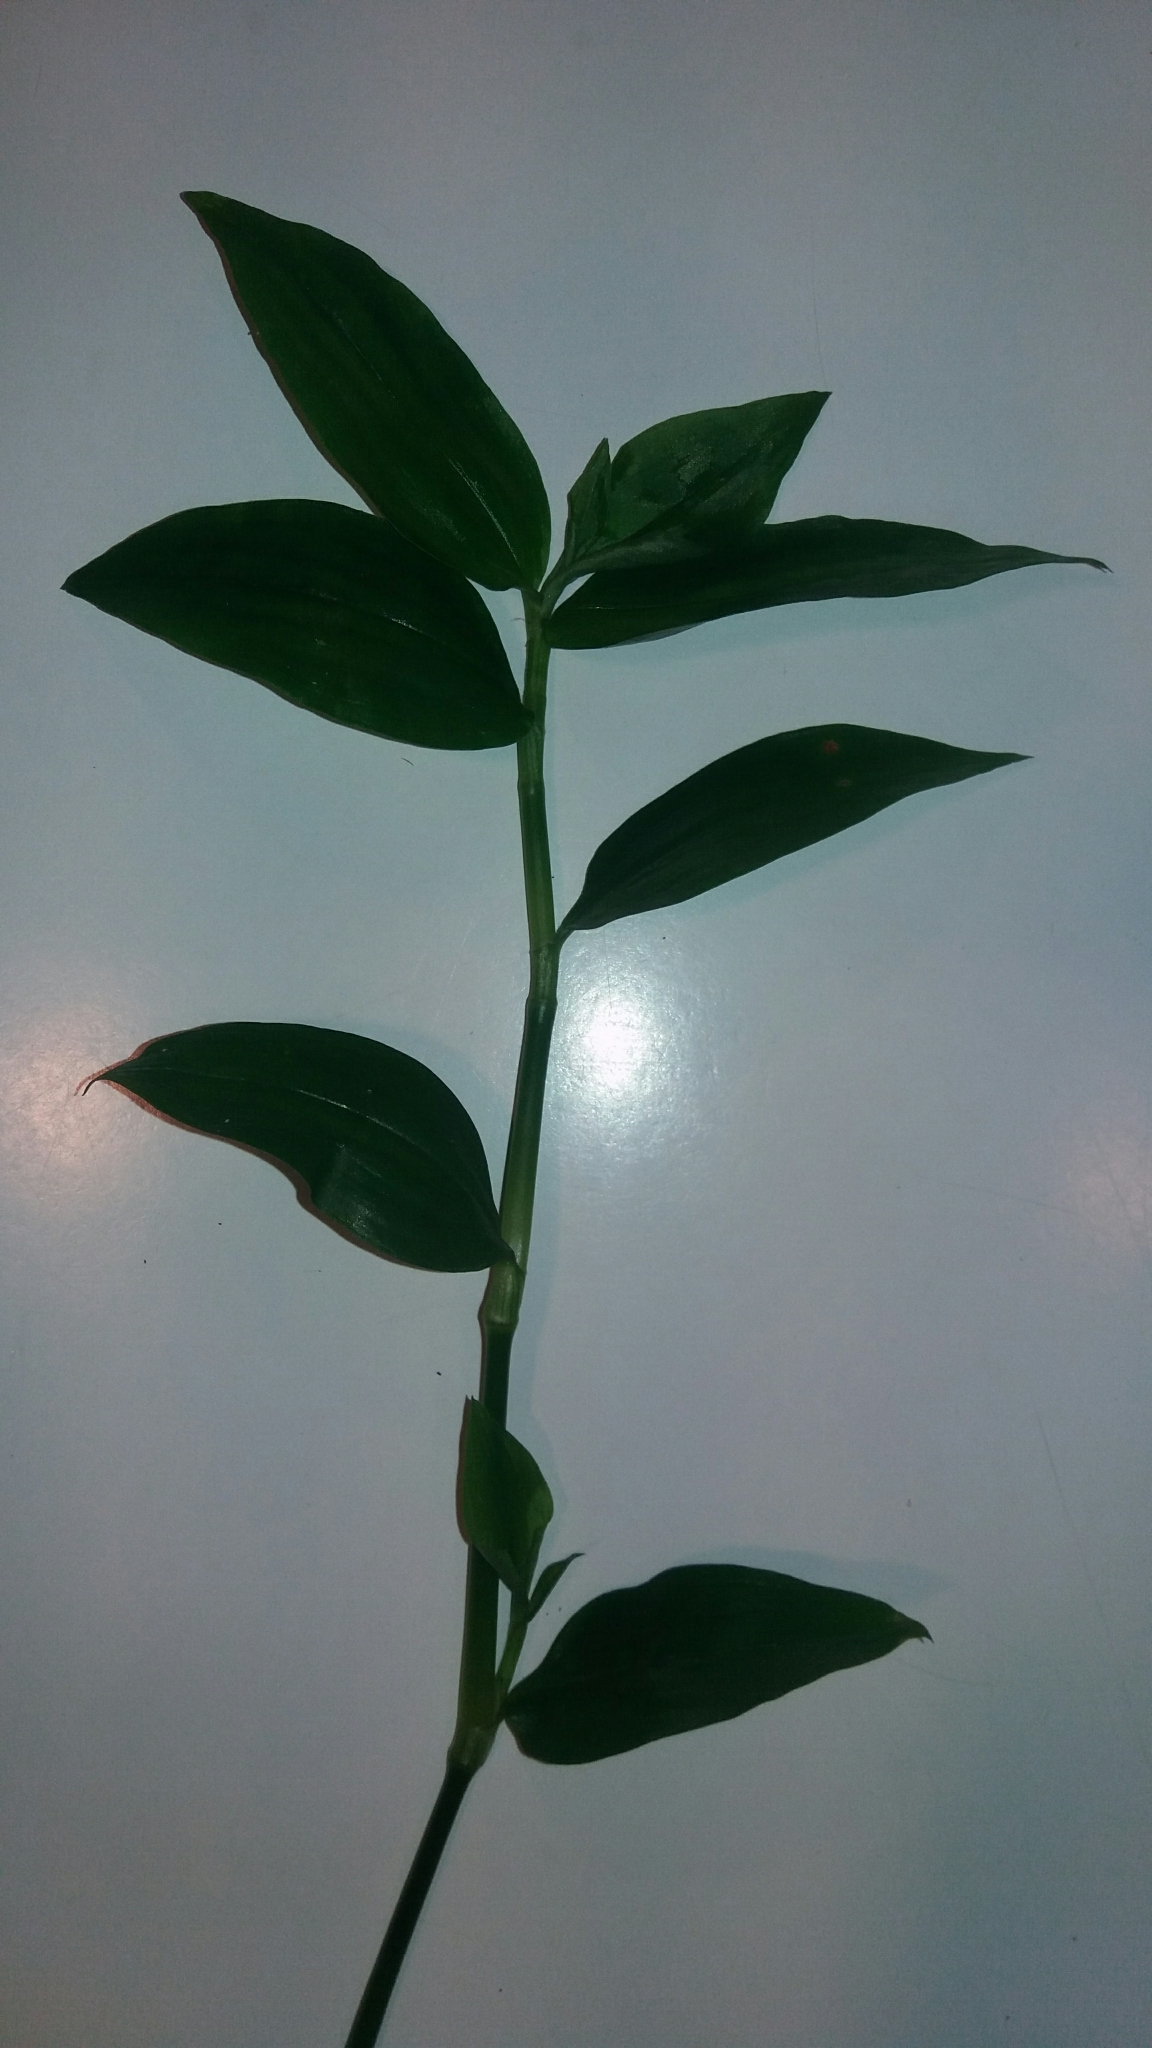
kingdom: Plantae
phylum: Tracheophyta
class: Liliopsida
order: Commelinales
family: Commelinaceae
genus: Tradescantia
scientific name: Tradescantia fluminensis
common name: Wandering-jew
